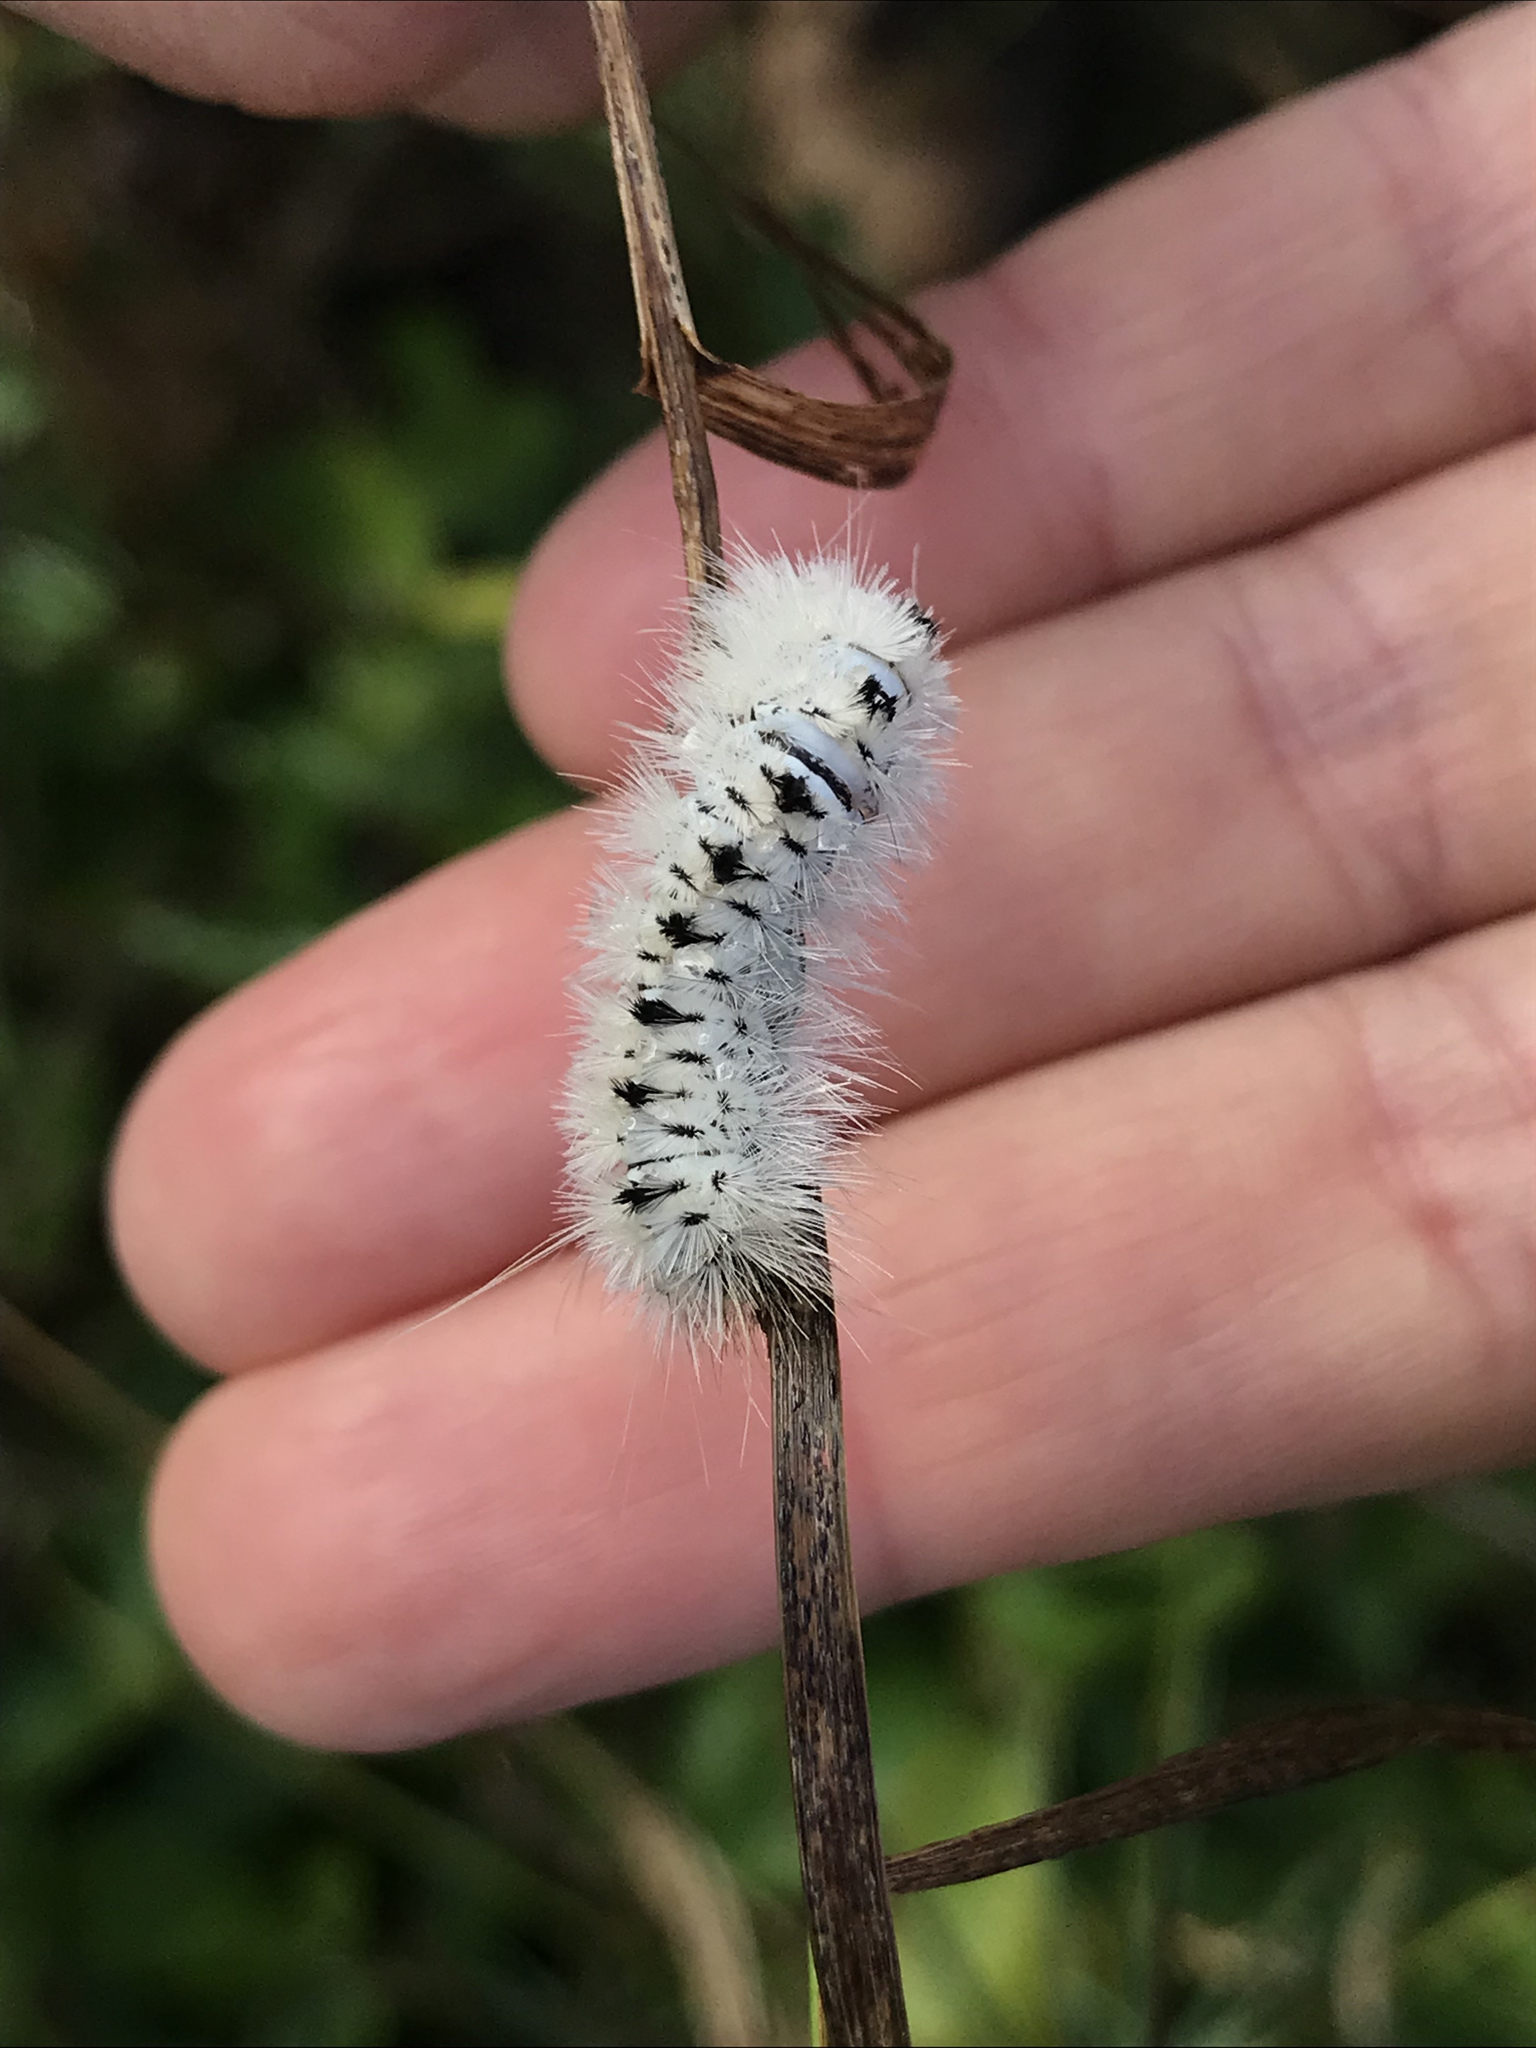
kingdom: Animalia
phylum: Arthropoda
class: Insecta
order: Lepidoptera
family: Erebidae
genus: Lophocampa
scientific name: Lophocampa caryae
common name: Hickory tussock moth
